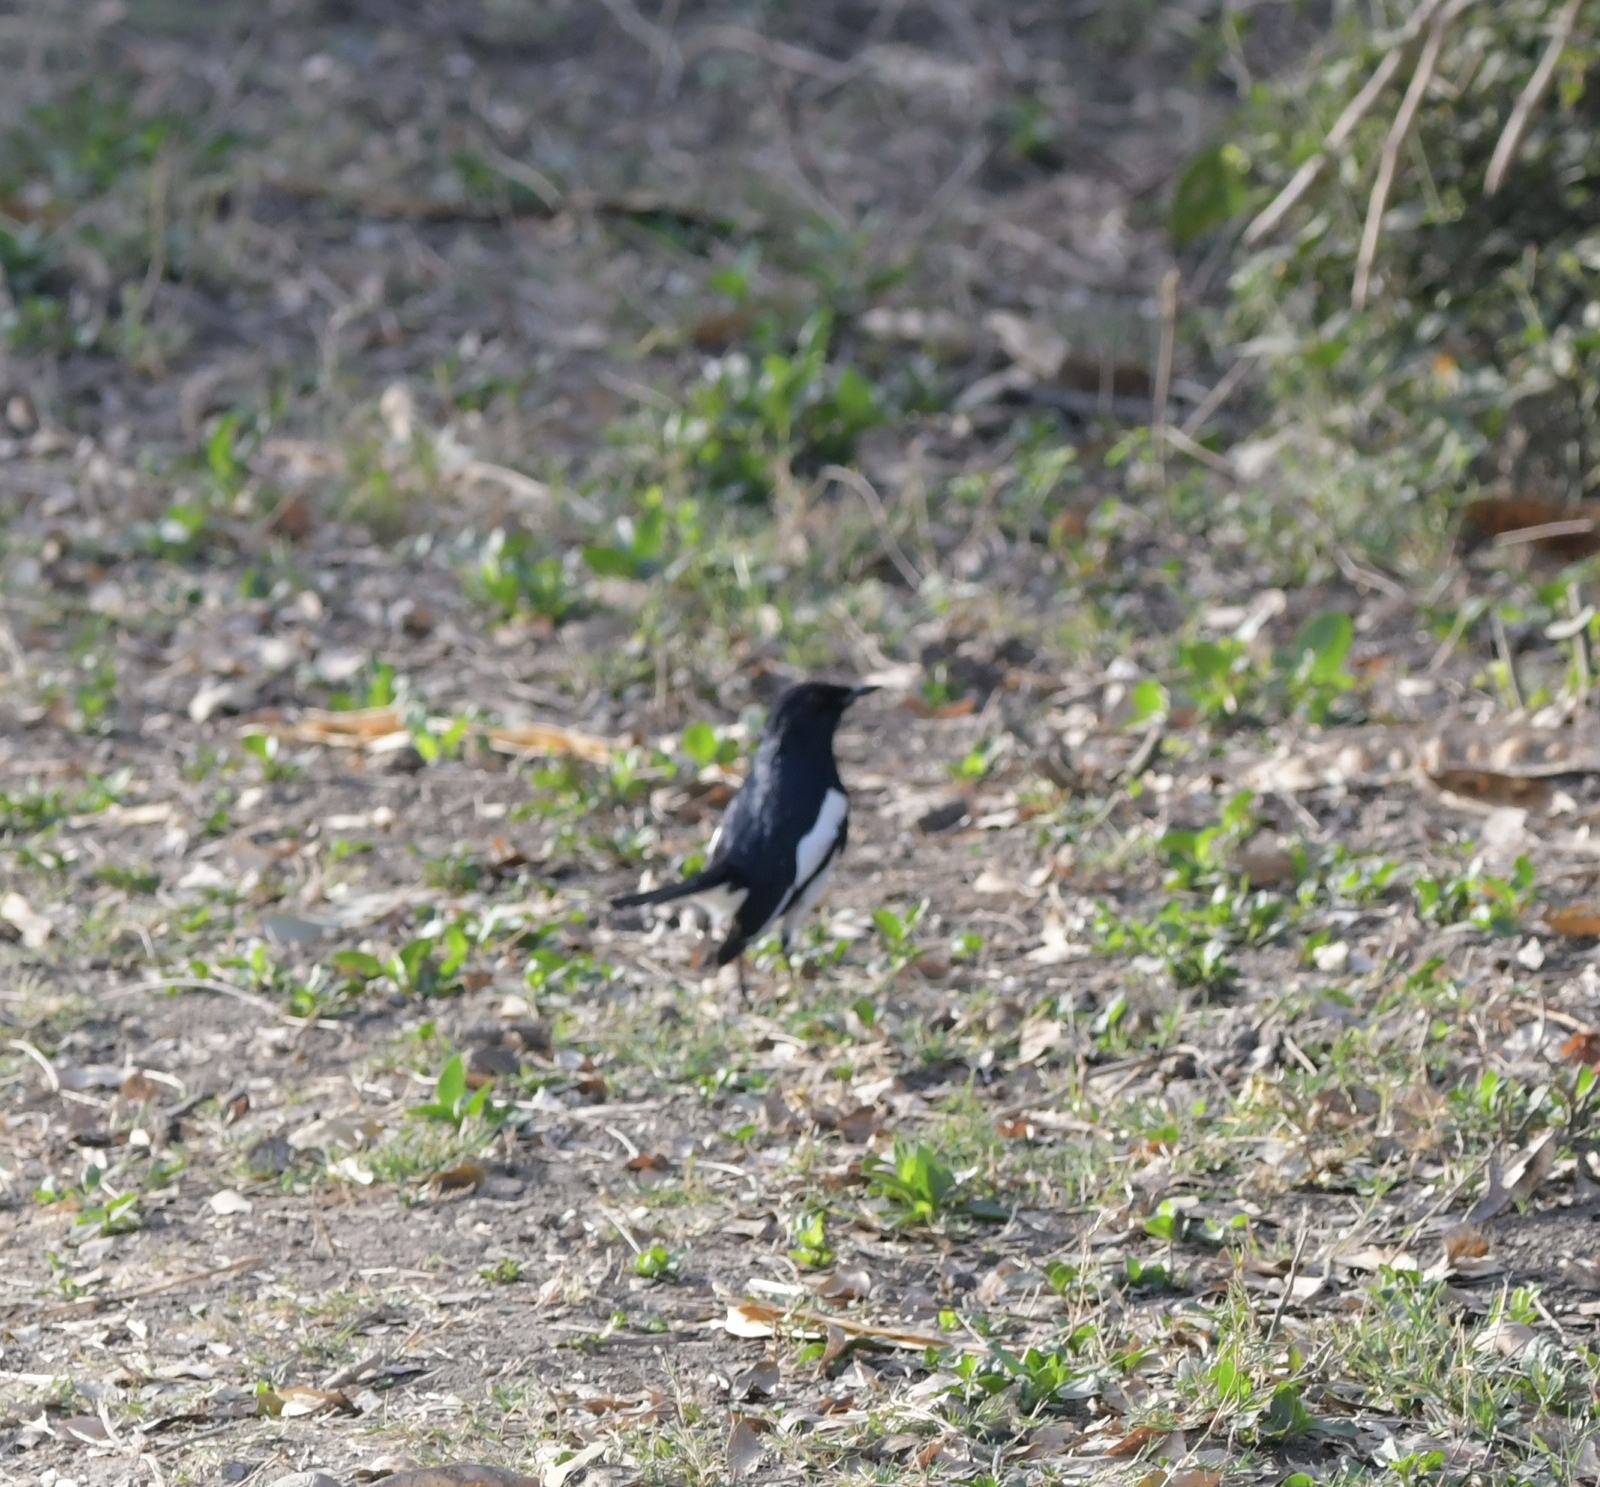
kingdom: Animalia
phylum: Chordata
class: Aves
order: Passeriformes
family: Muscicapidae
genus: Copsychus
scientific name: Copsychus saularis
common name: Oriental magpie-robin
